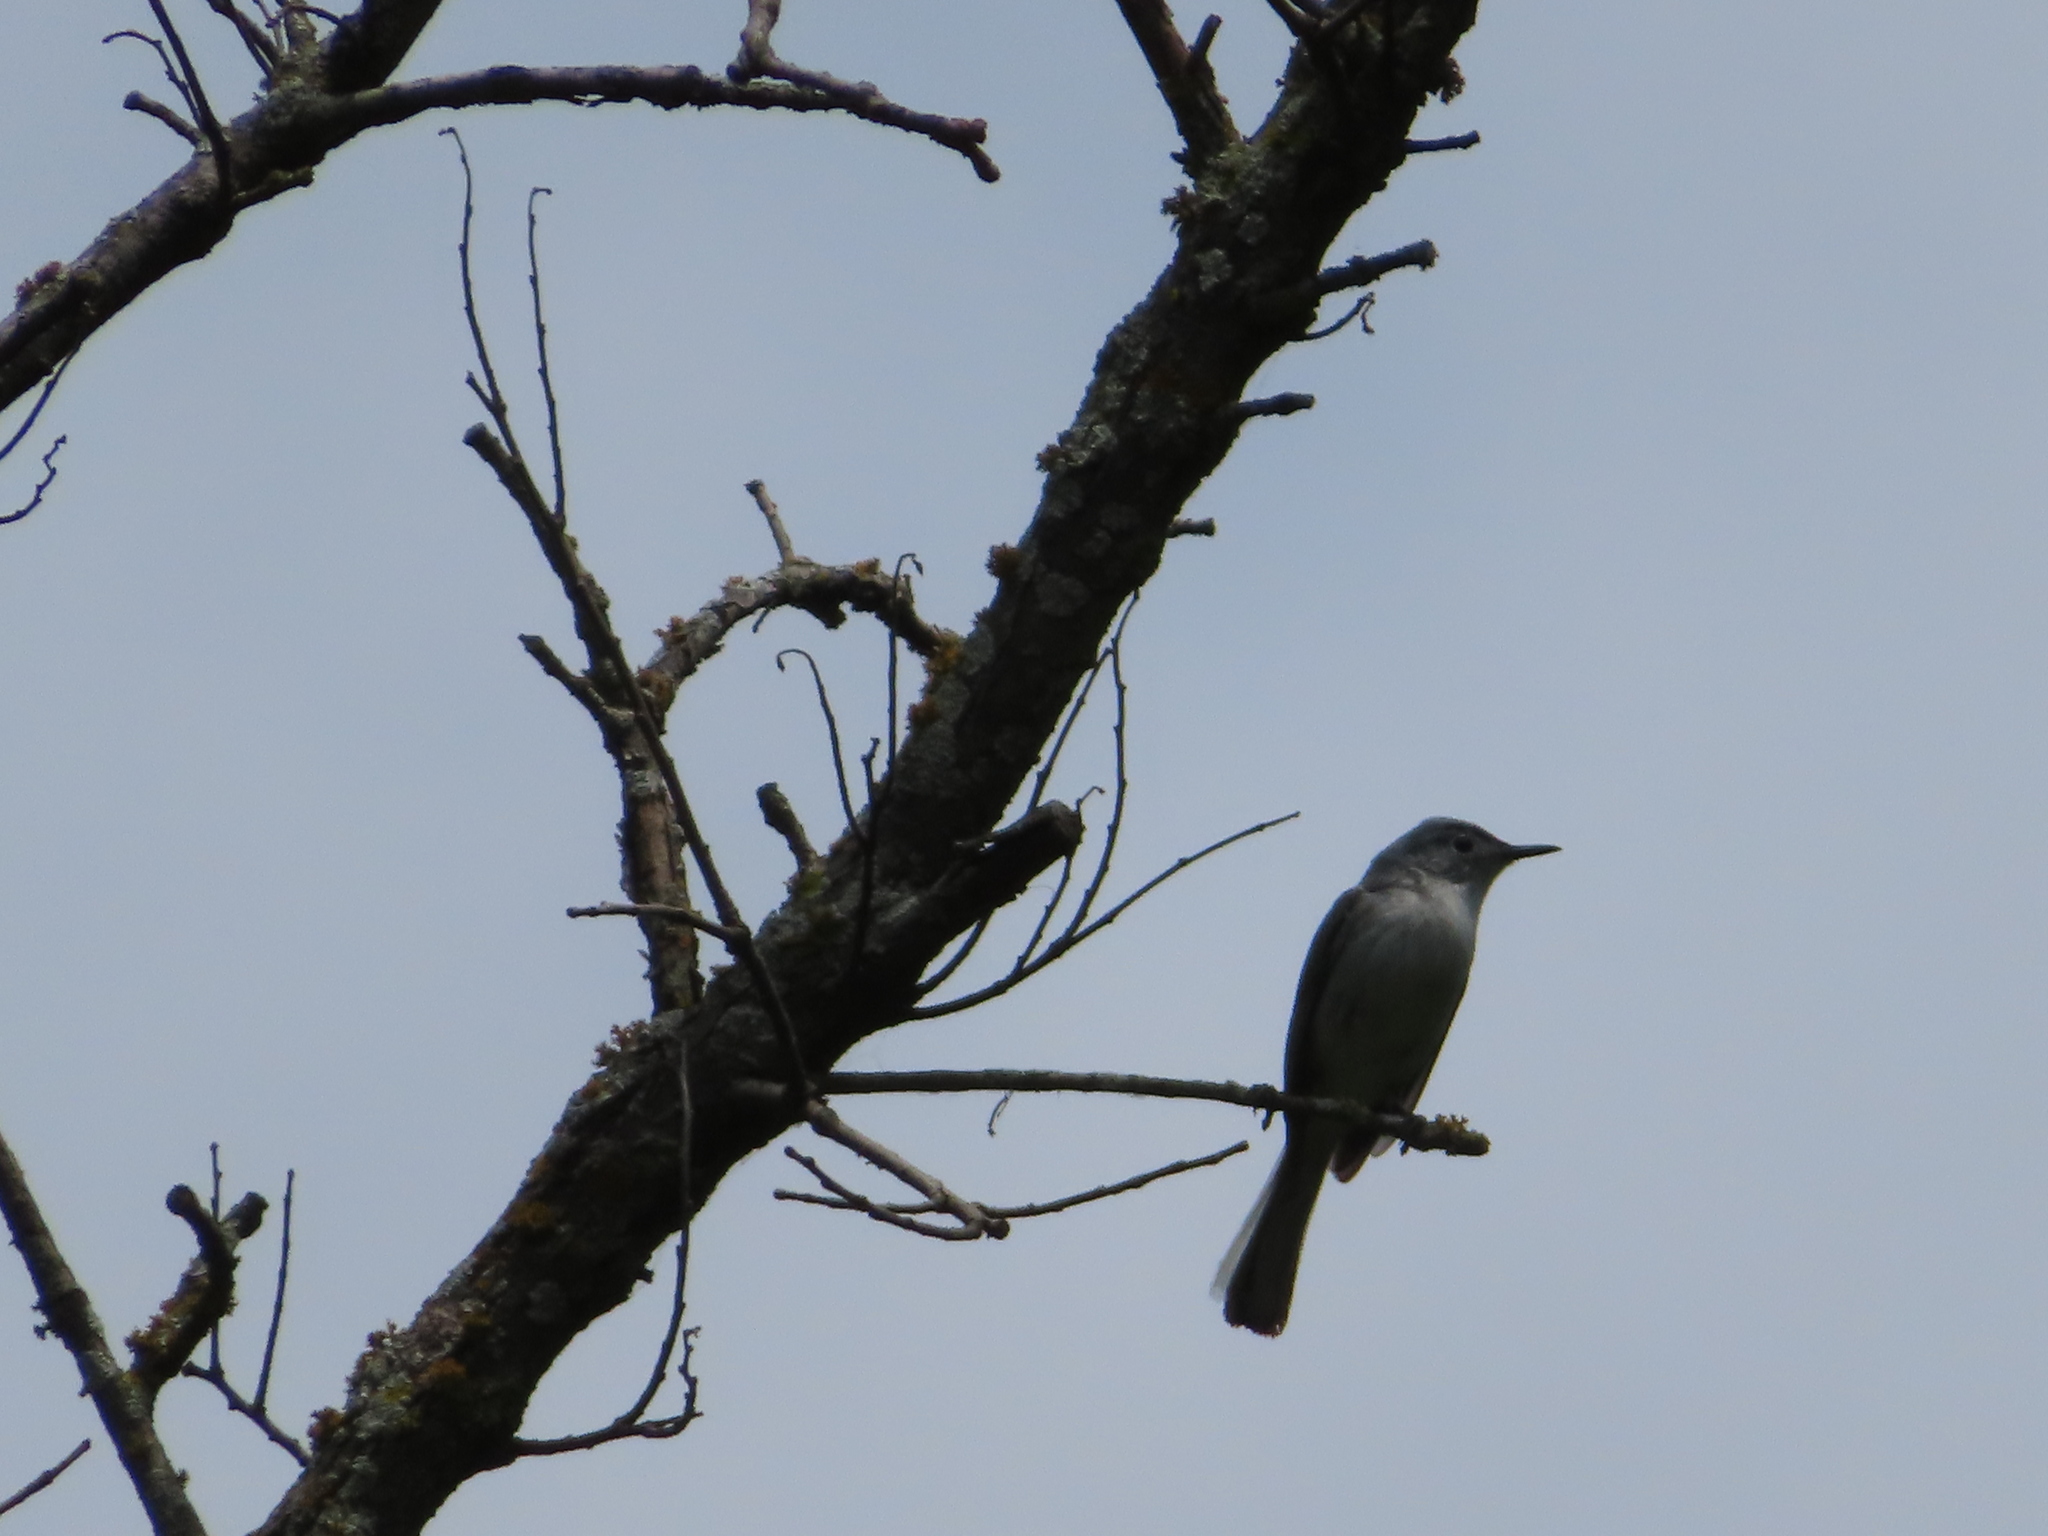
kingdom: Animalia
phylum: Chordata
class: Aves
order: Passeriformes
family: Polioptilidae
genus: Polioptila
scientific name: Polioptila caerulea
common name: Blue-gray gnatcatcher
